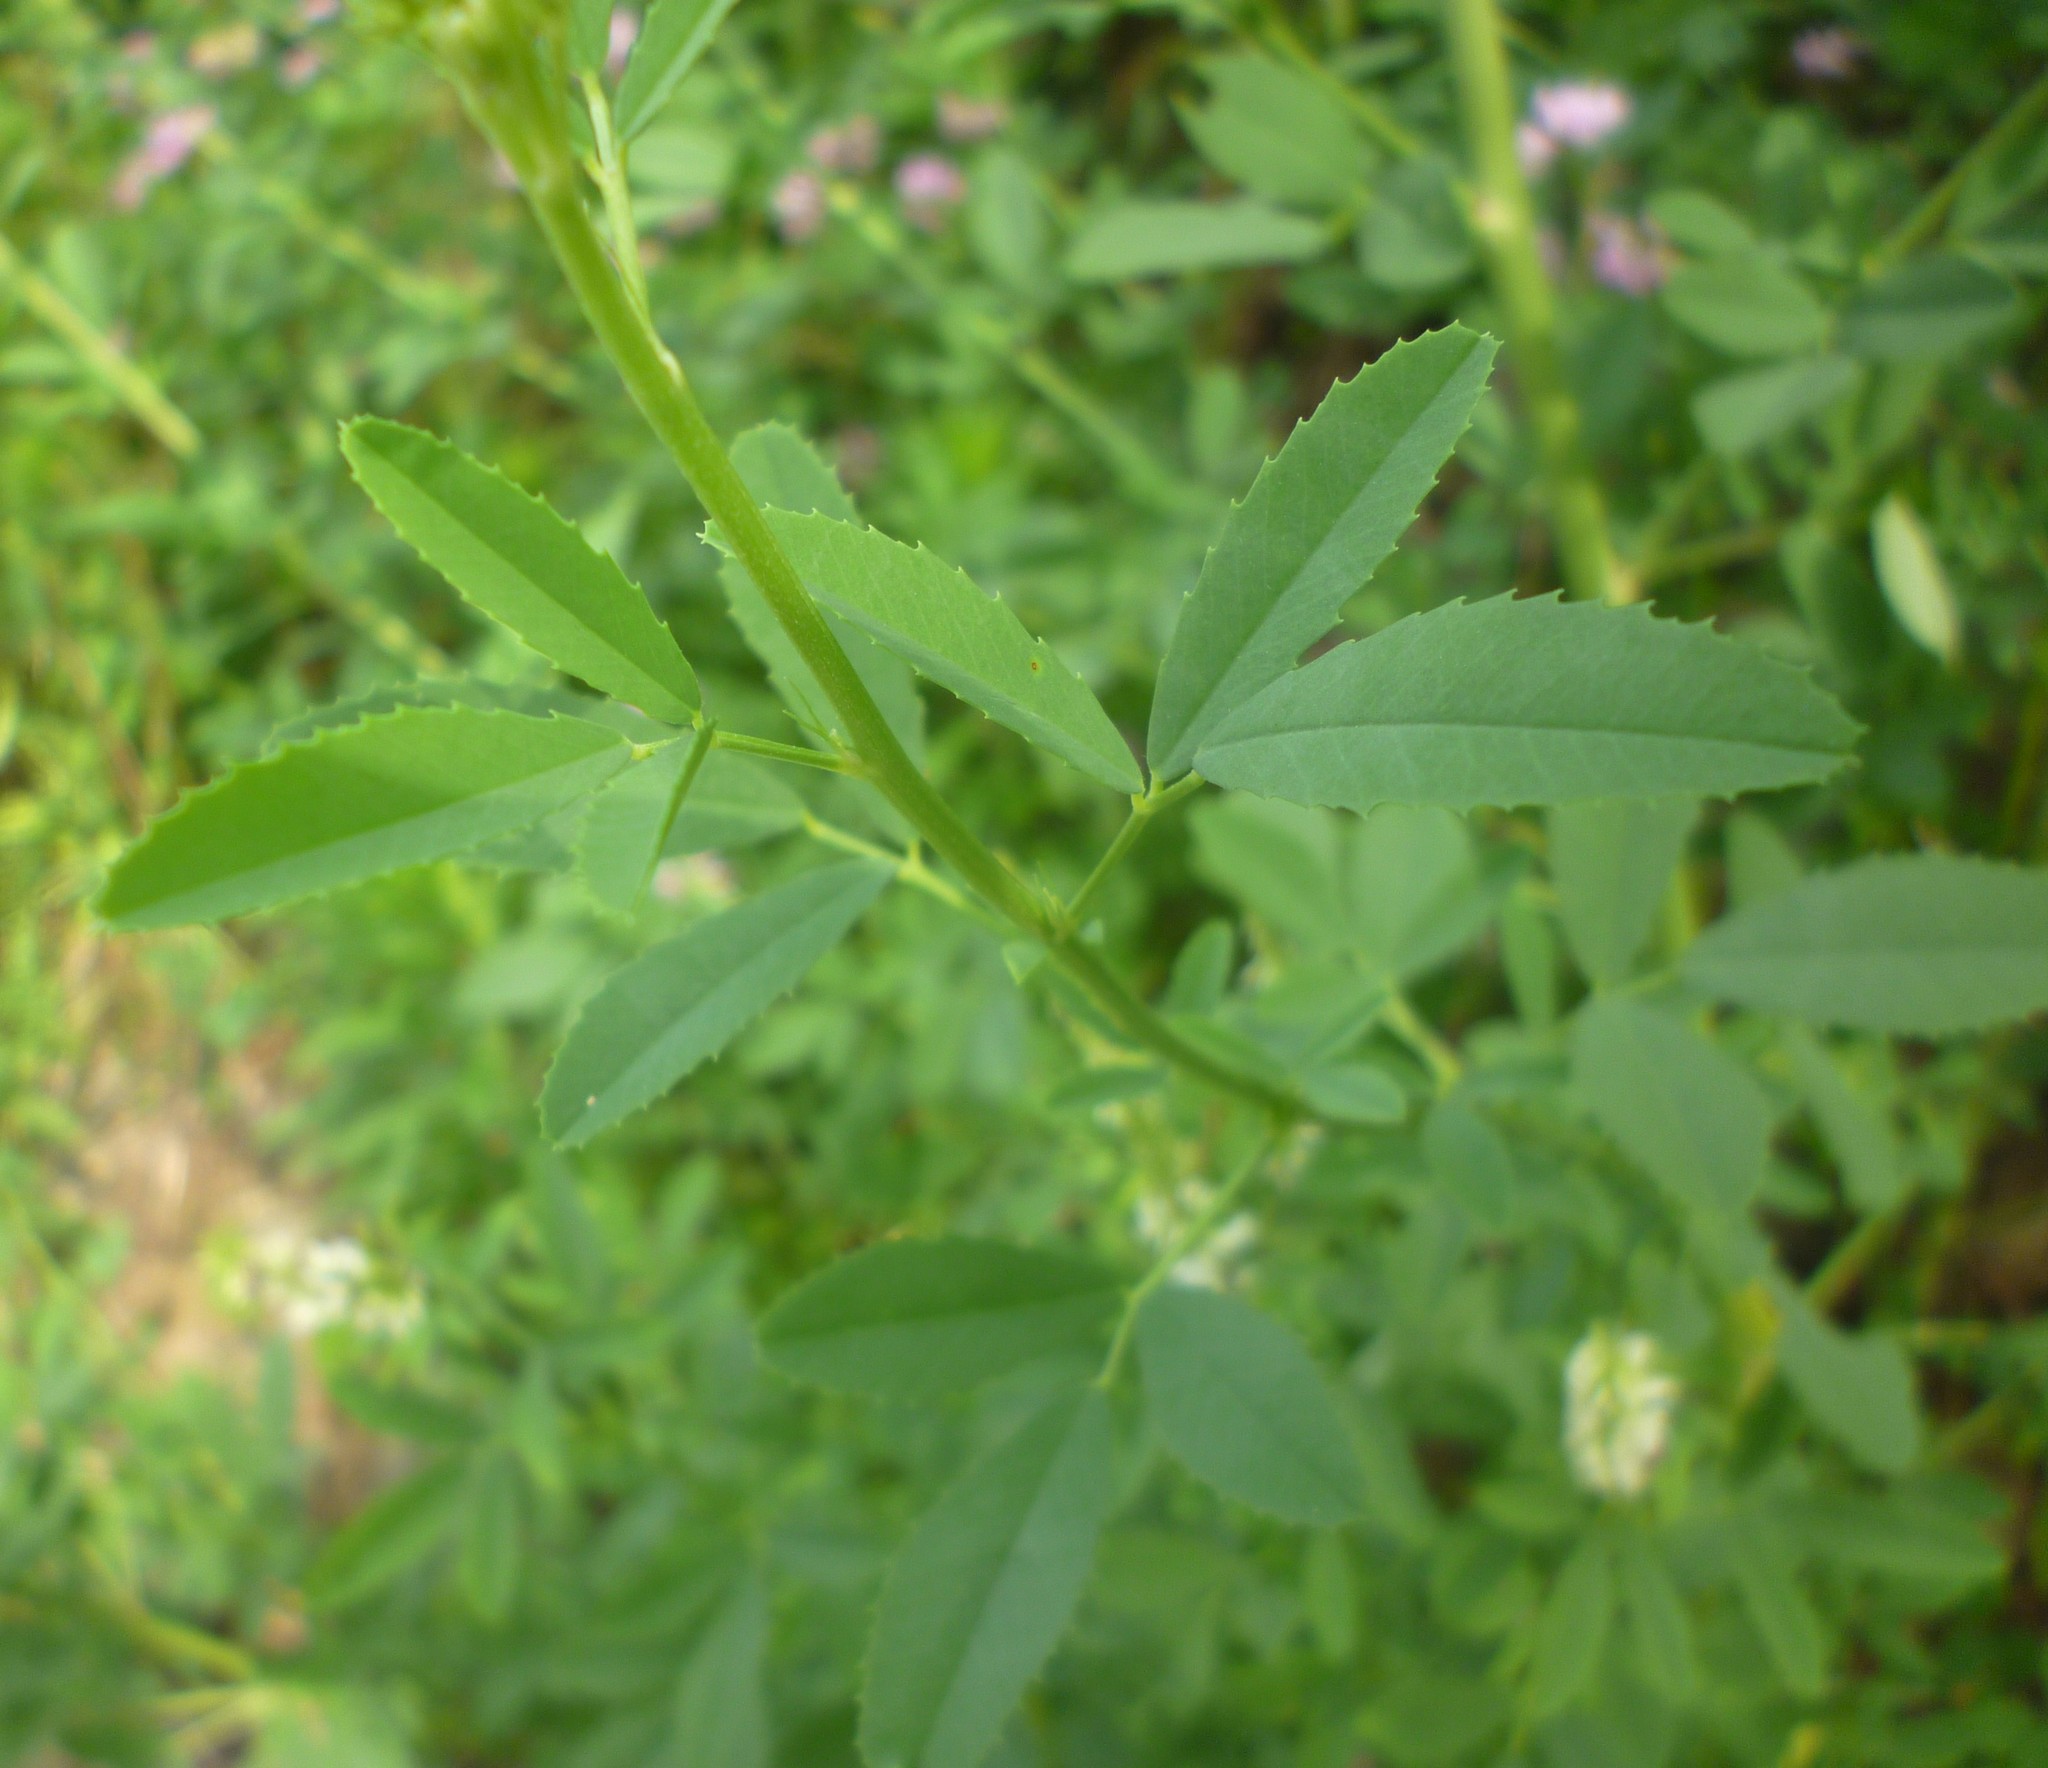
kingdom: Plantae
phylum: Tracheophyta
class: Magnoliopsida
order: Fabales
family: Fabaceae
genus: Melilotus
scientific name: Melilotus albus
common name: White melilot
